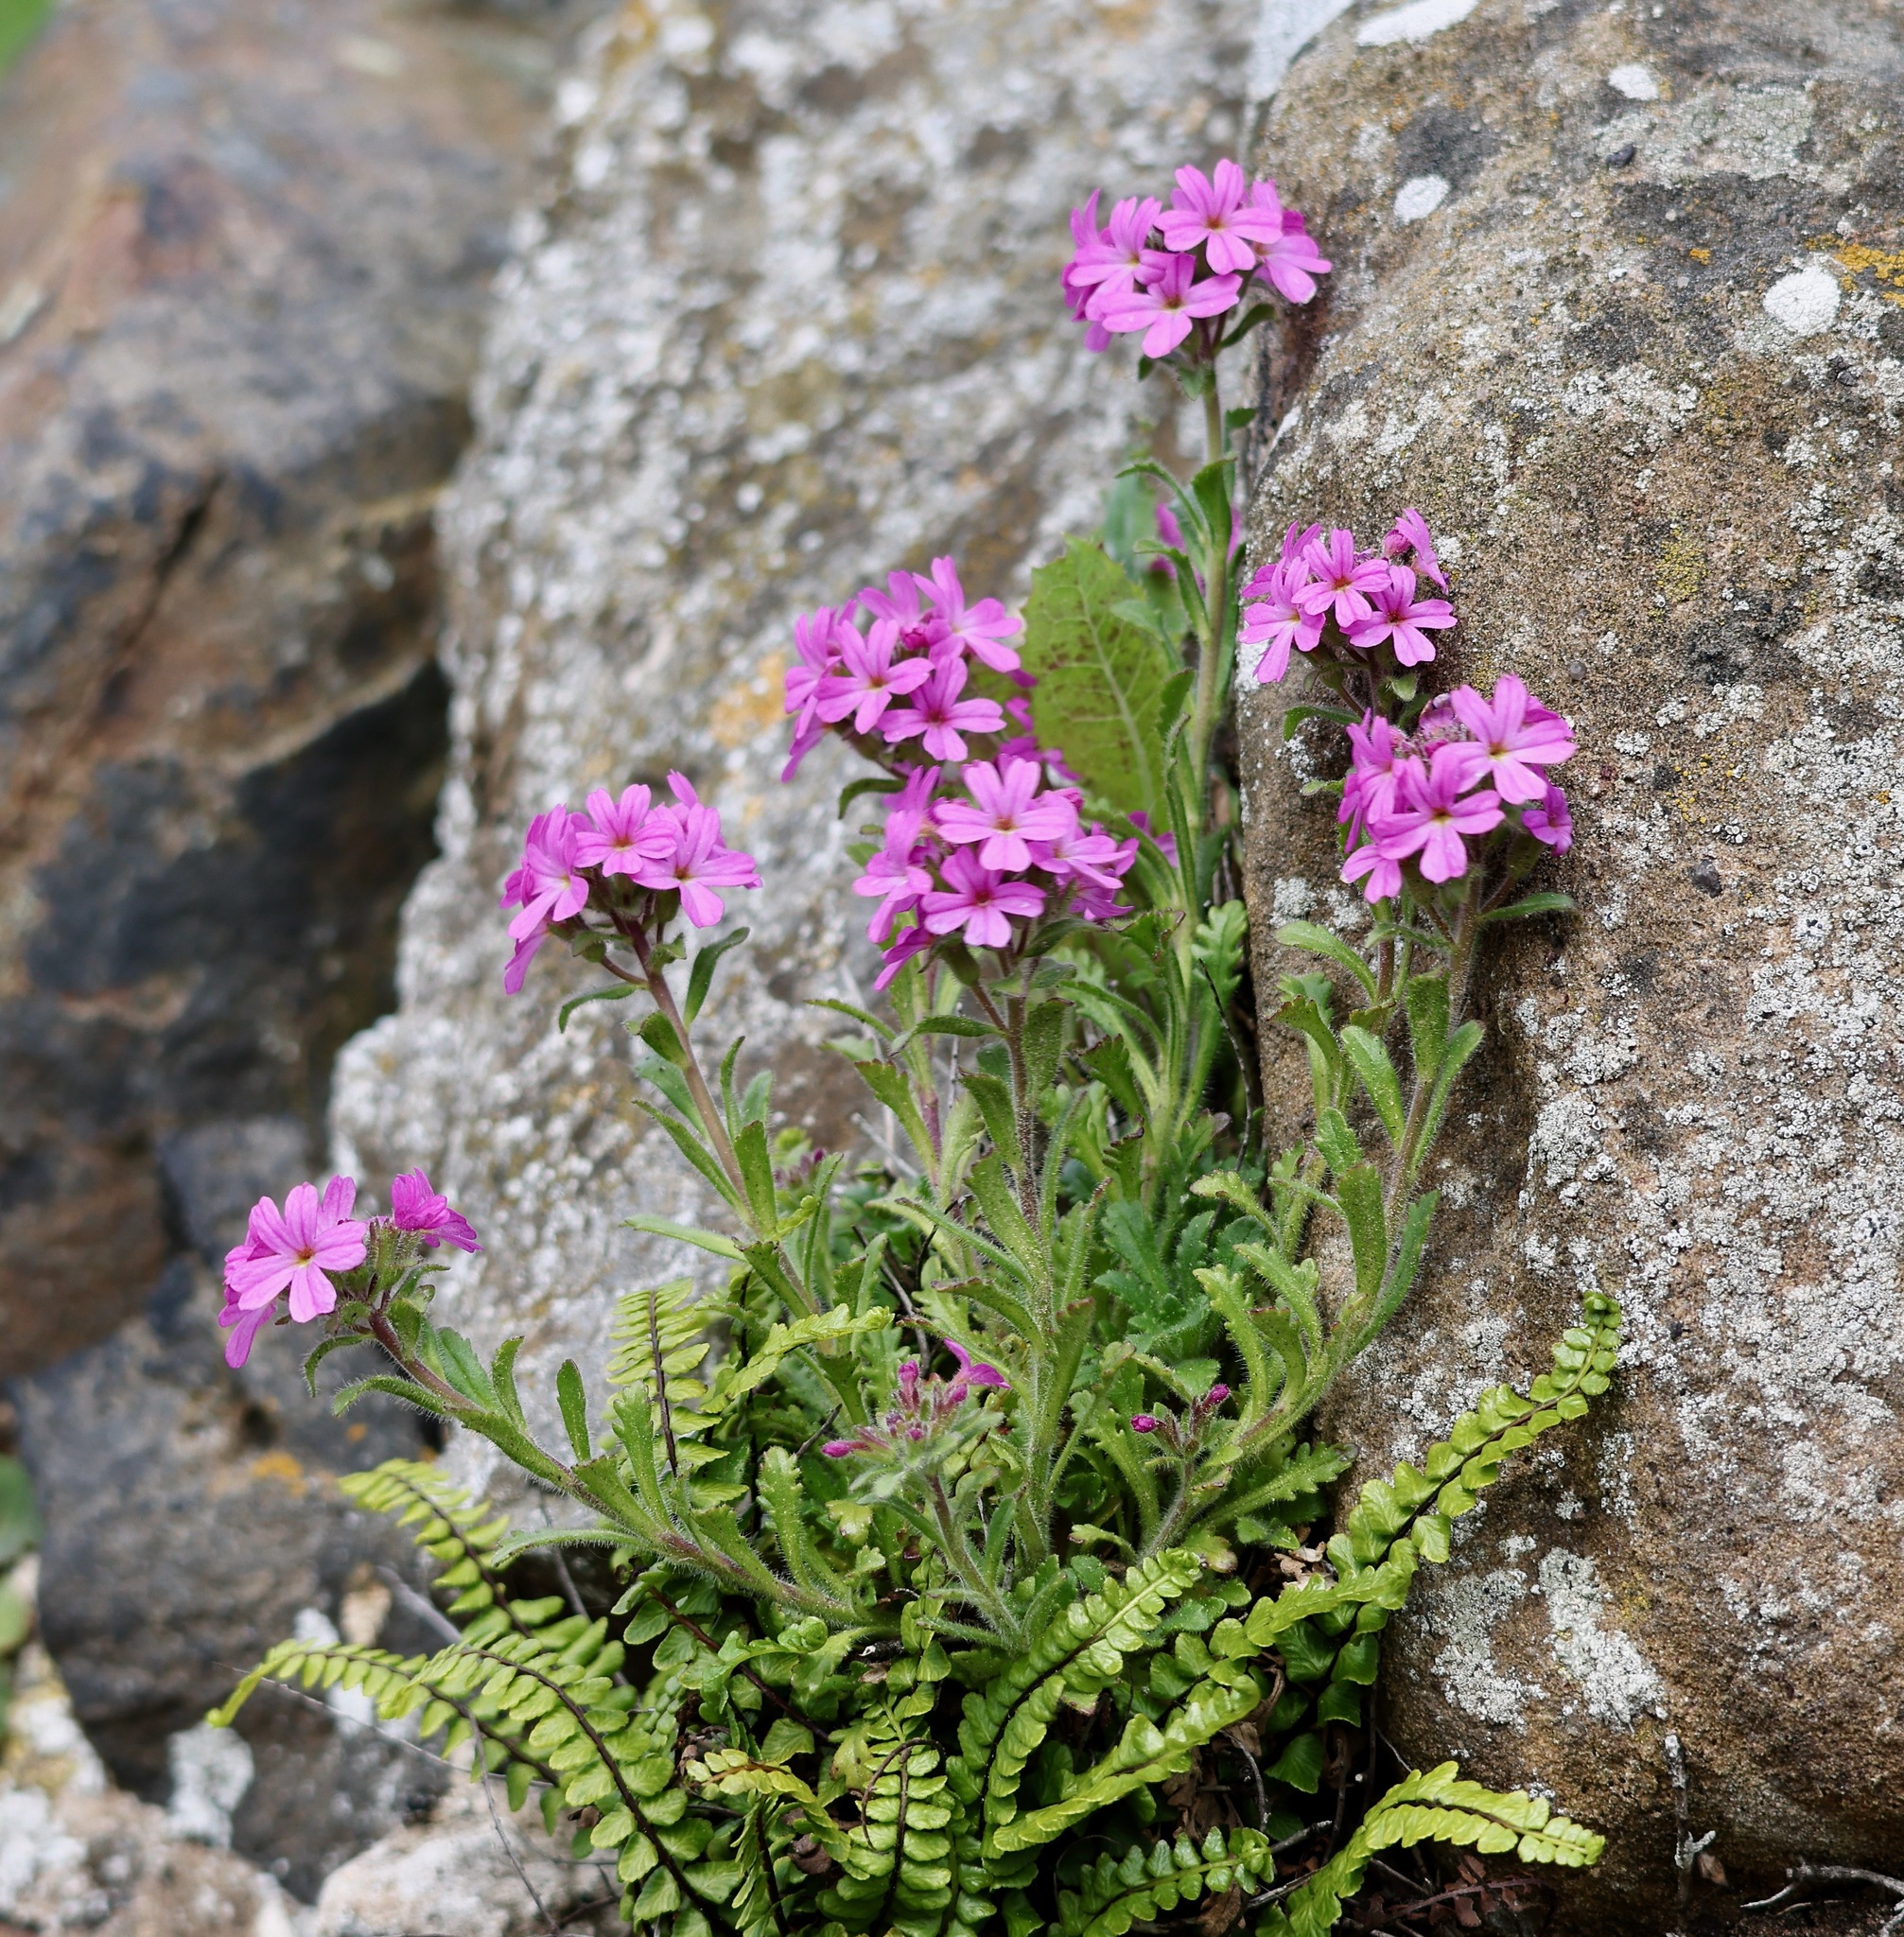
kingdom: Plantae
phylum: Tracheophyta
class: Magnoliopsida
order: Lamiales
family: Plantaginaceae
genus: Erinus
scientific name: Erinus alpinus
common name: Fairy foxglove
